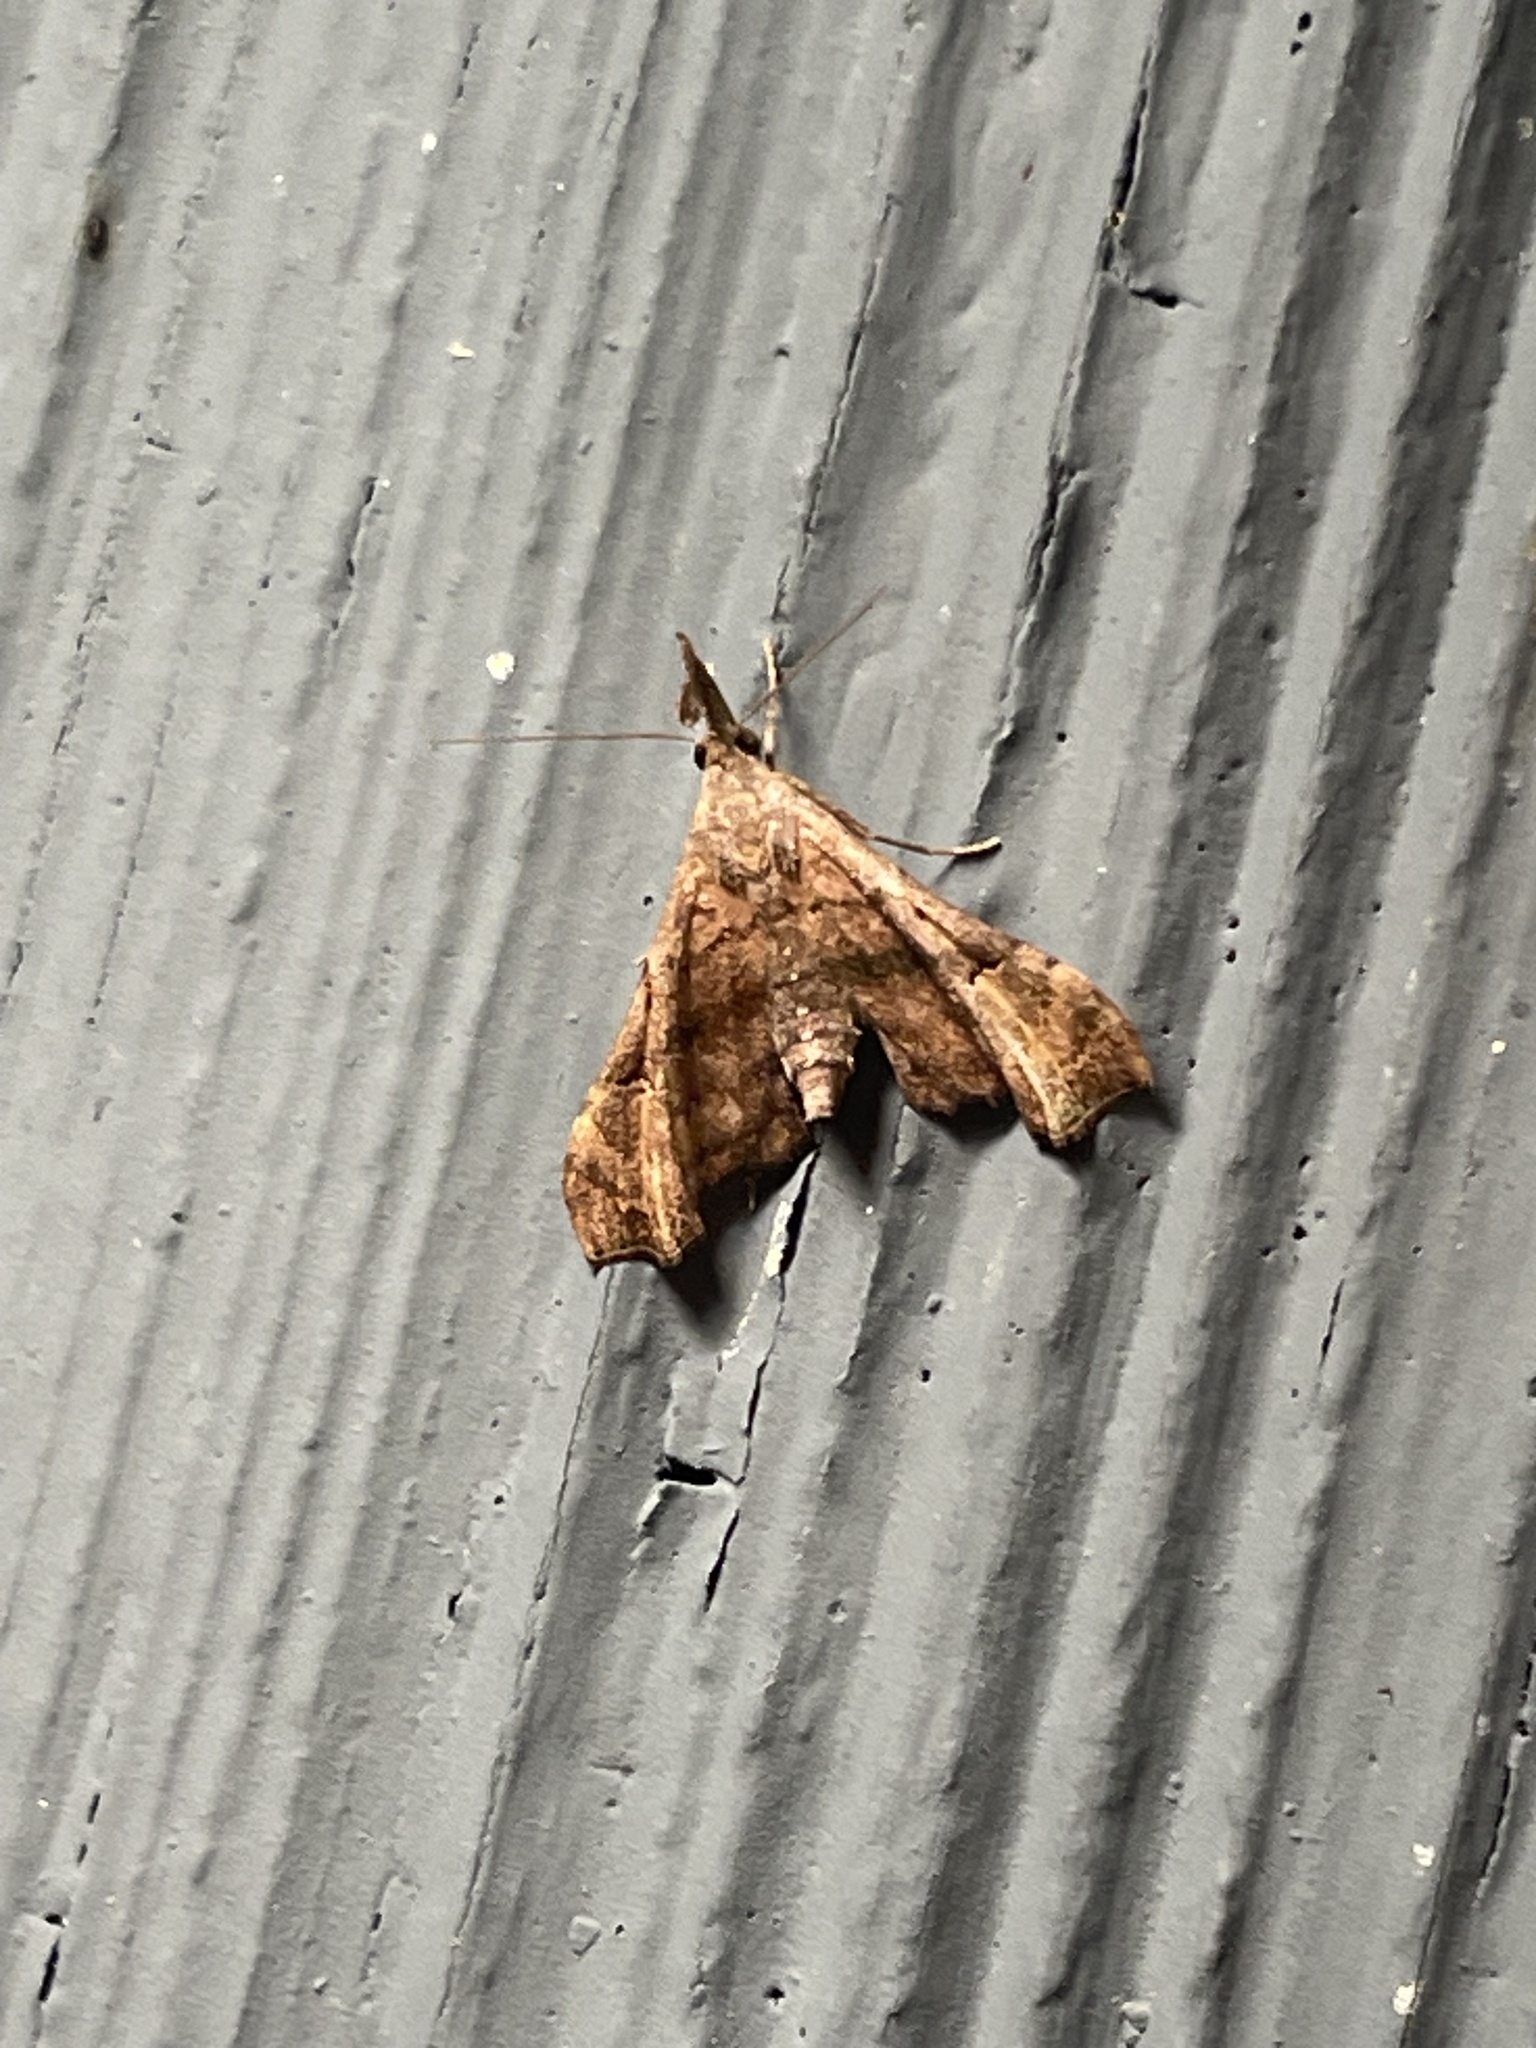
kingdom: Animalia
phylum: Arthropoda
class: Insecta
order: Lepidoptera
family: Erebidae
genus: Palthis
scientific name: Palthis asopialis
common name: Faint-spotted palthis moth
